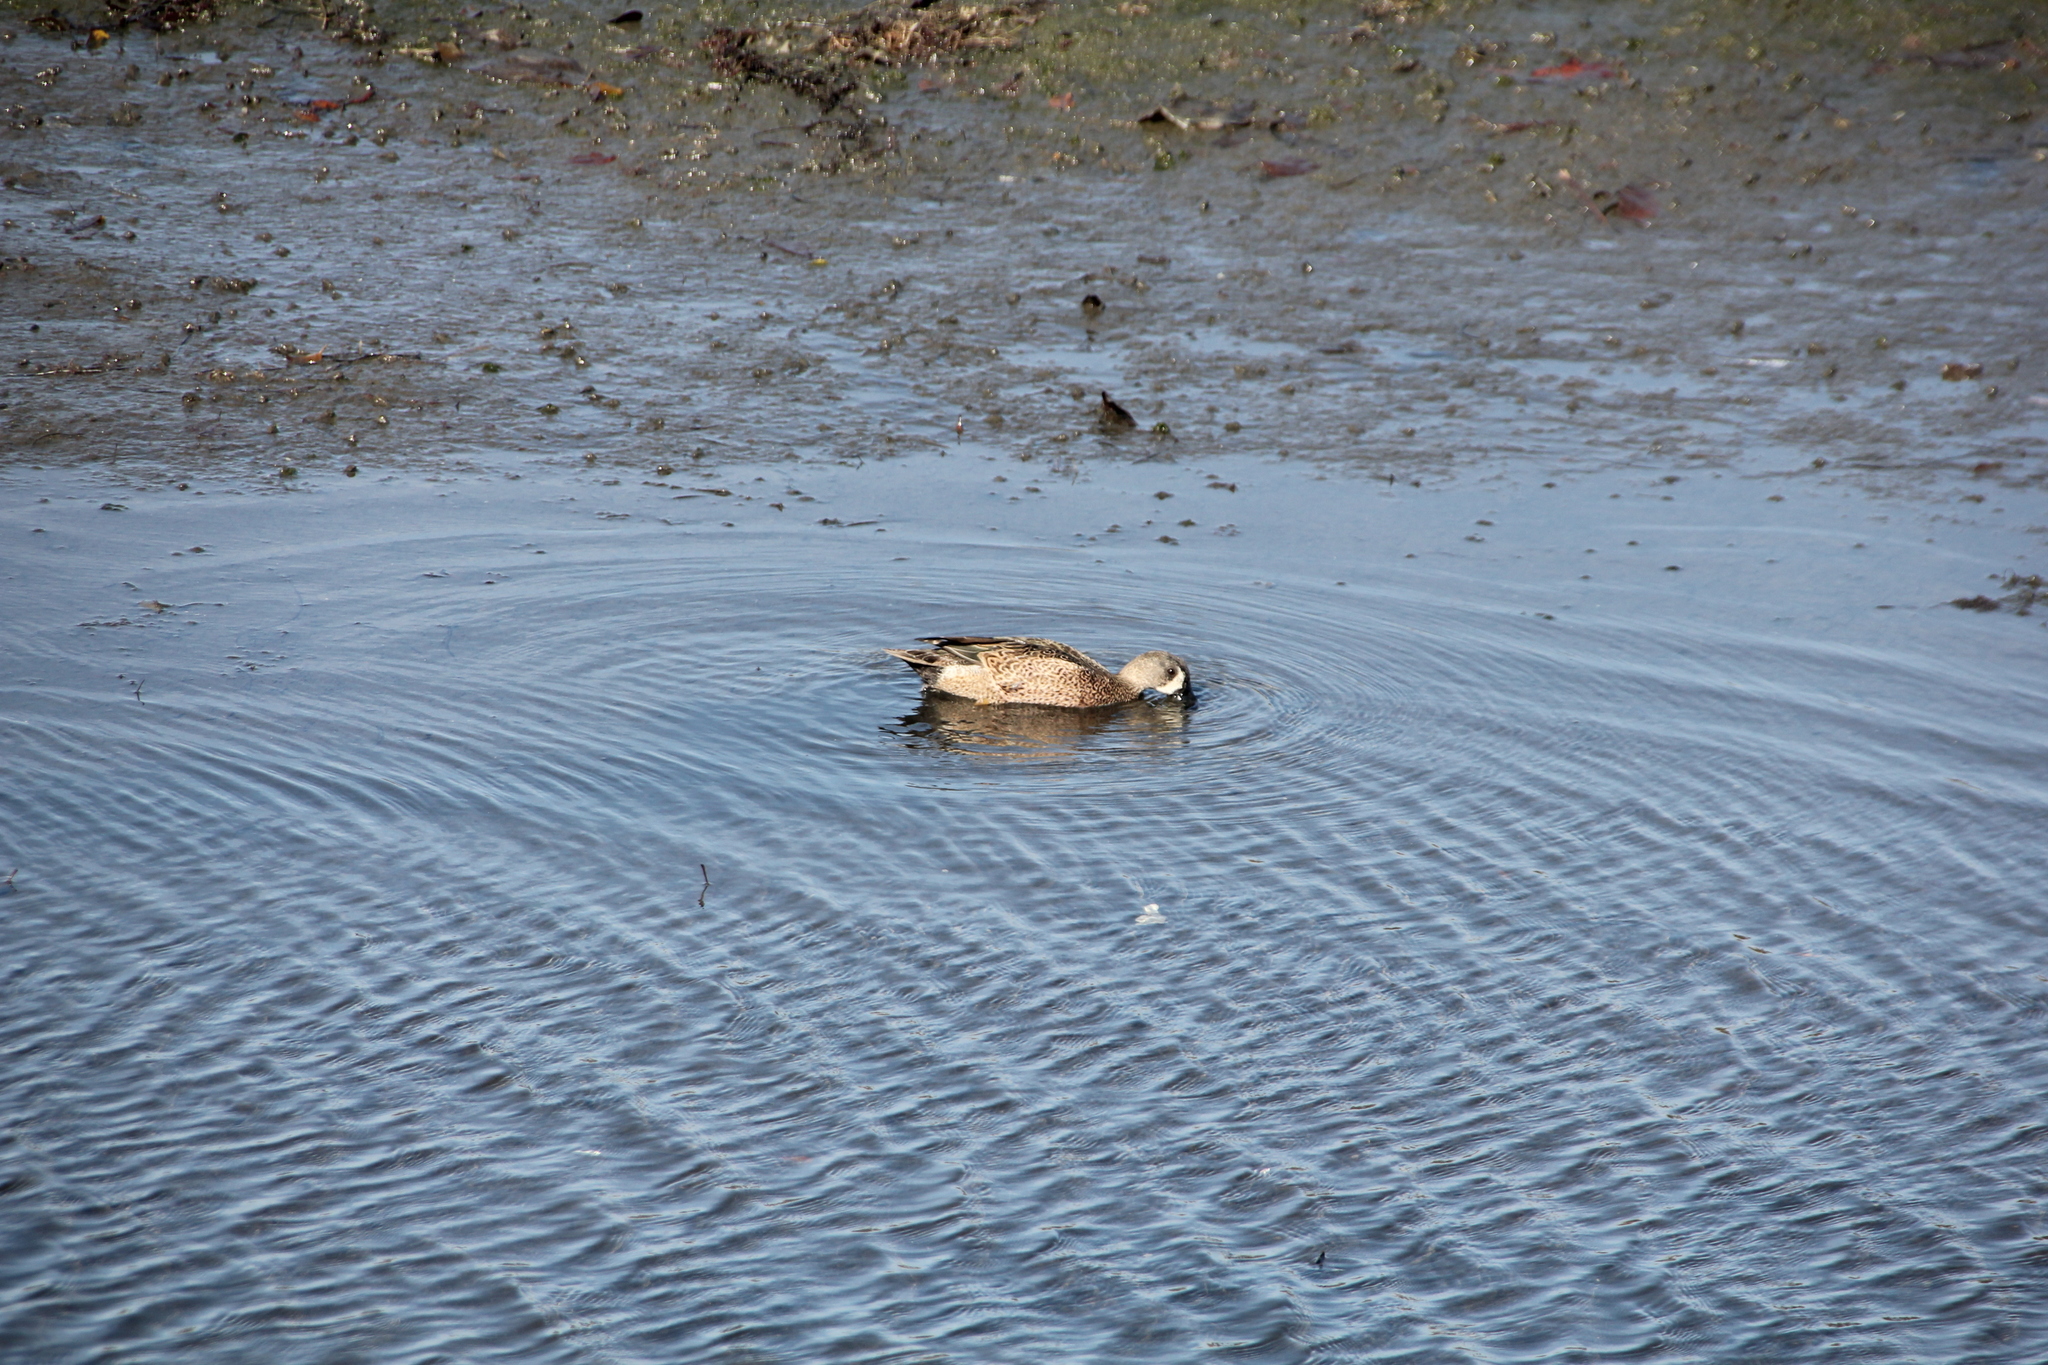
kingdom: Animalia
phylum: Chordata
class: Aves
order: Anseriformes
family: Anatidae
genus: Spatula
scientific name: Spatula discors
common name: Blue-winged teal
